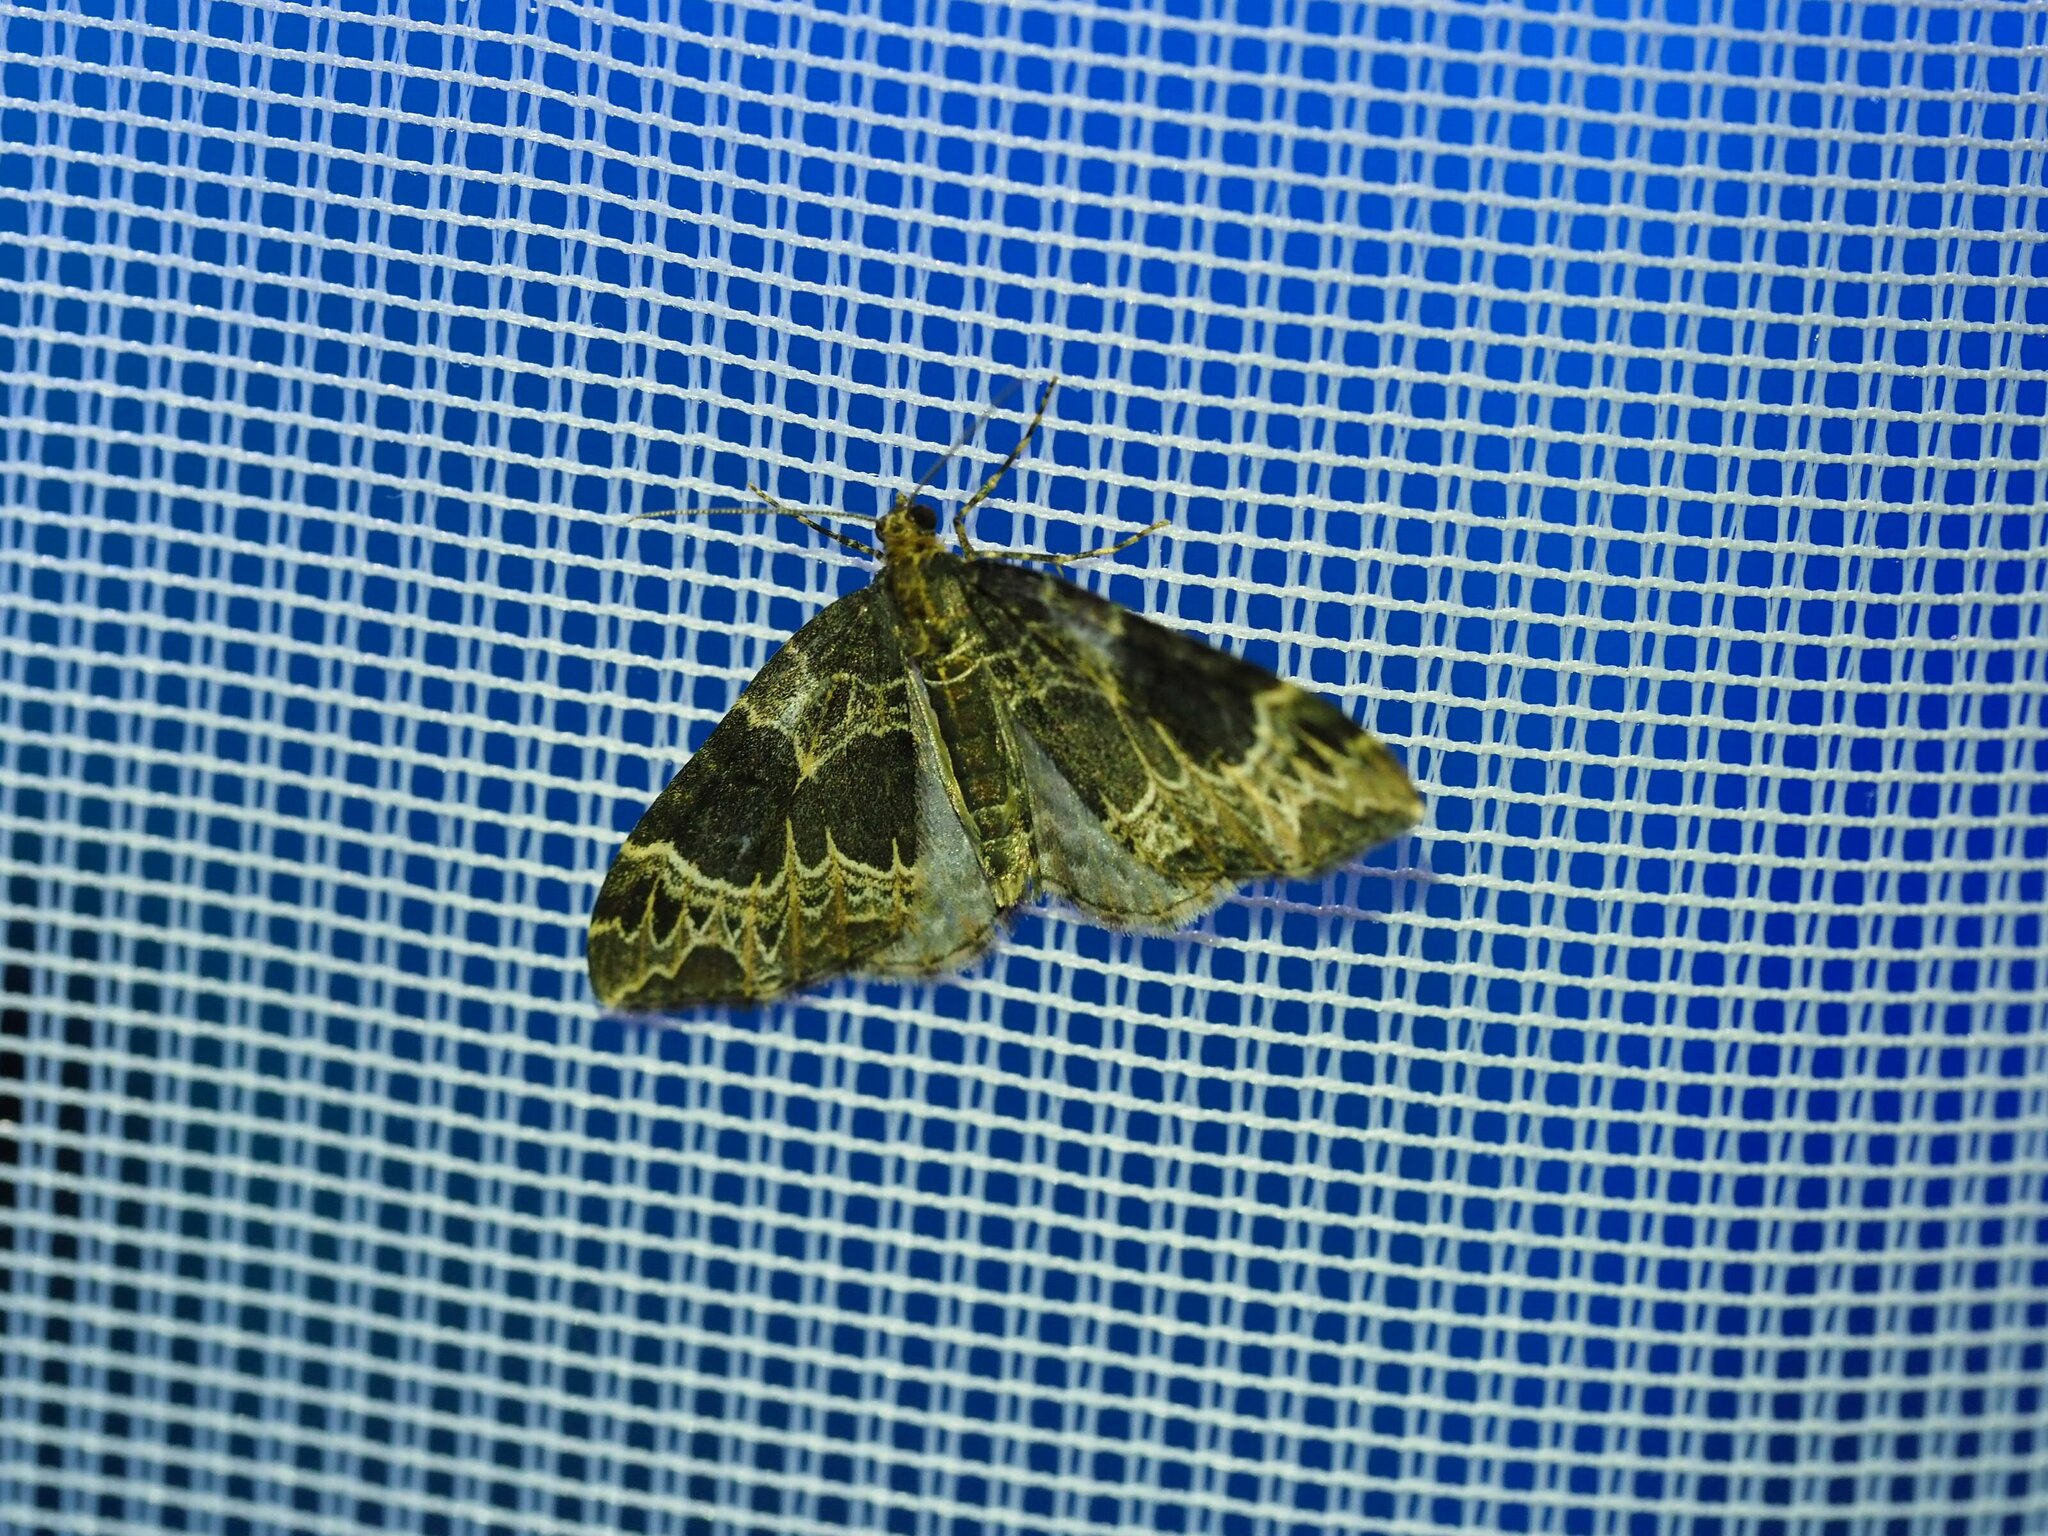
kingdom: Animalia
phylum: Arthropoda
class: Insecta
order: Lepidoptera
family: Geometridae
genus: Ecliptopera
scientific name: Ecliptopera silaceata
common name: Small phoenix
